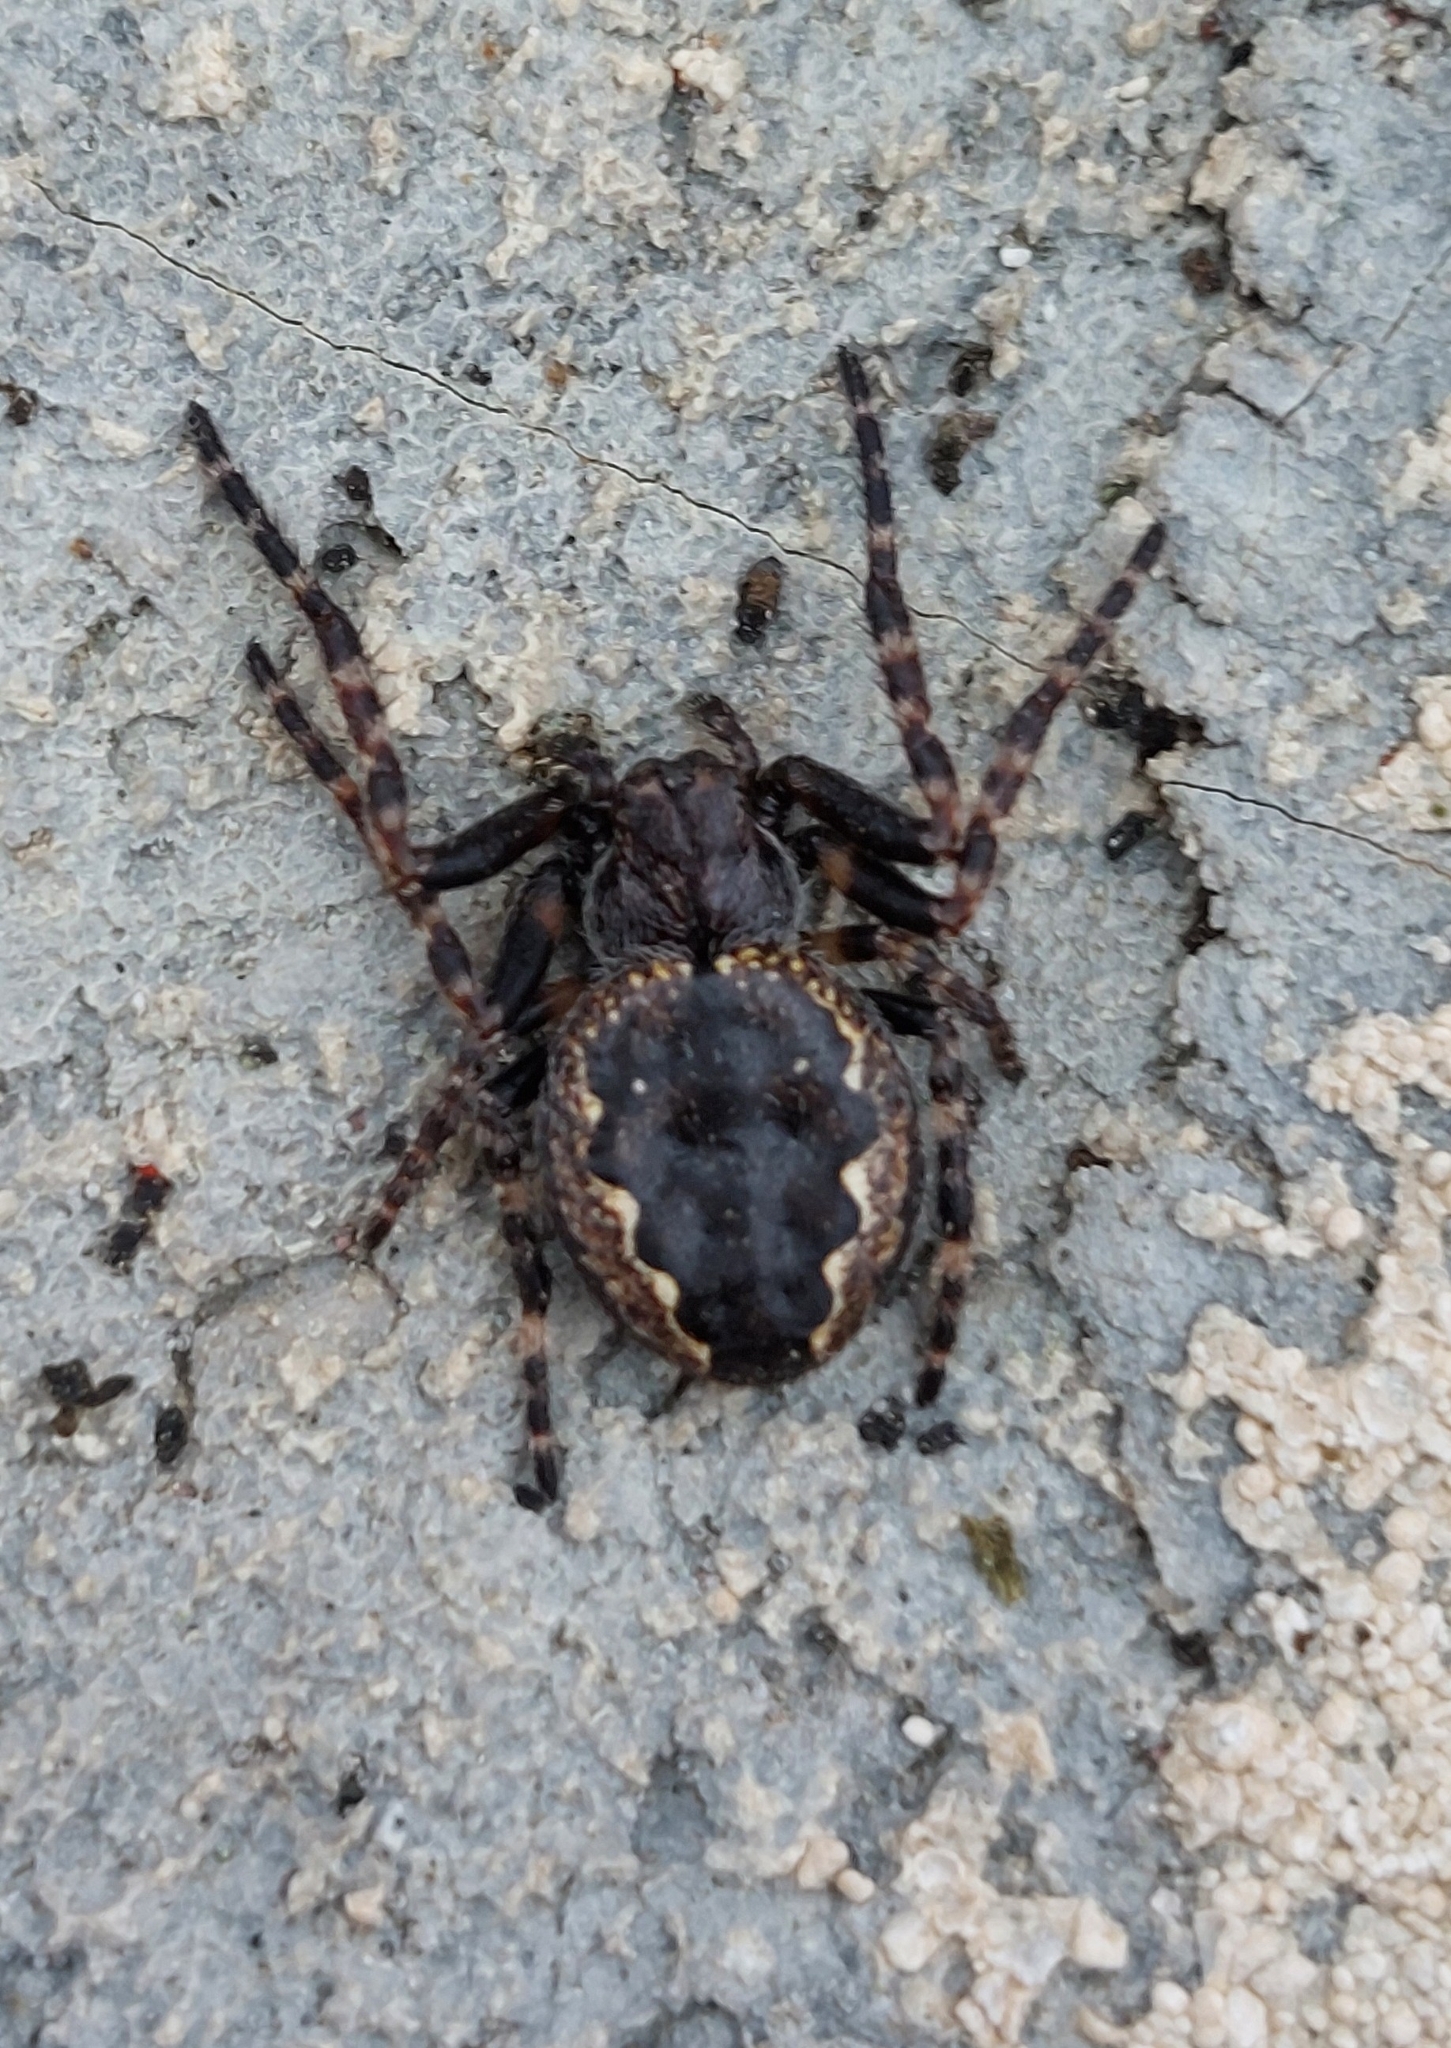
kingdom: Animalia
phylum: Arthropoda
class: Arachnida
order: Araneae
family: Araneidae
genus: Nuctenea
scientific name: Nuctenea umbratica
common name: Toad spider
